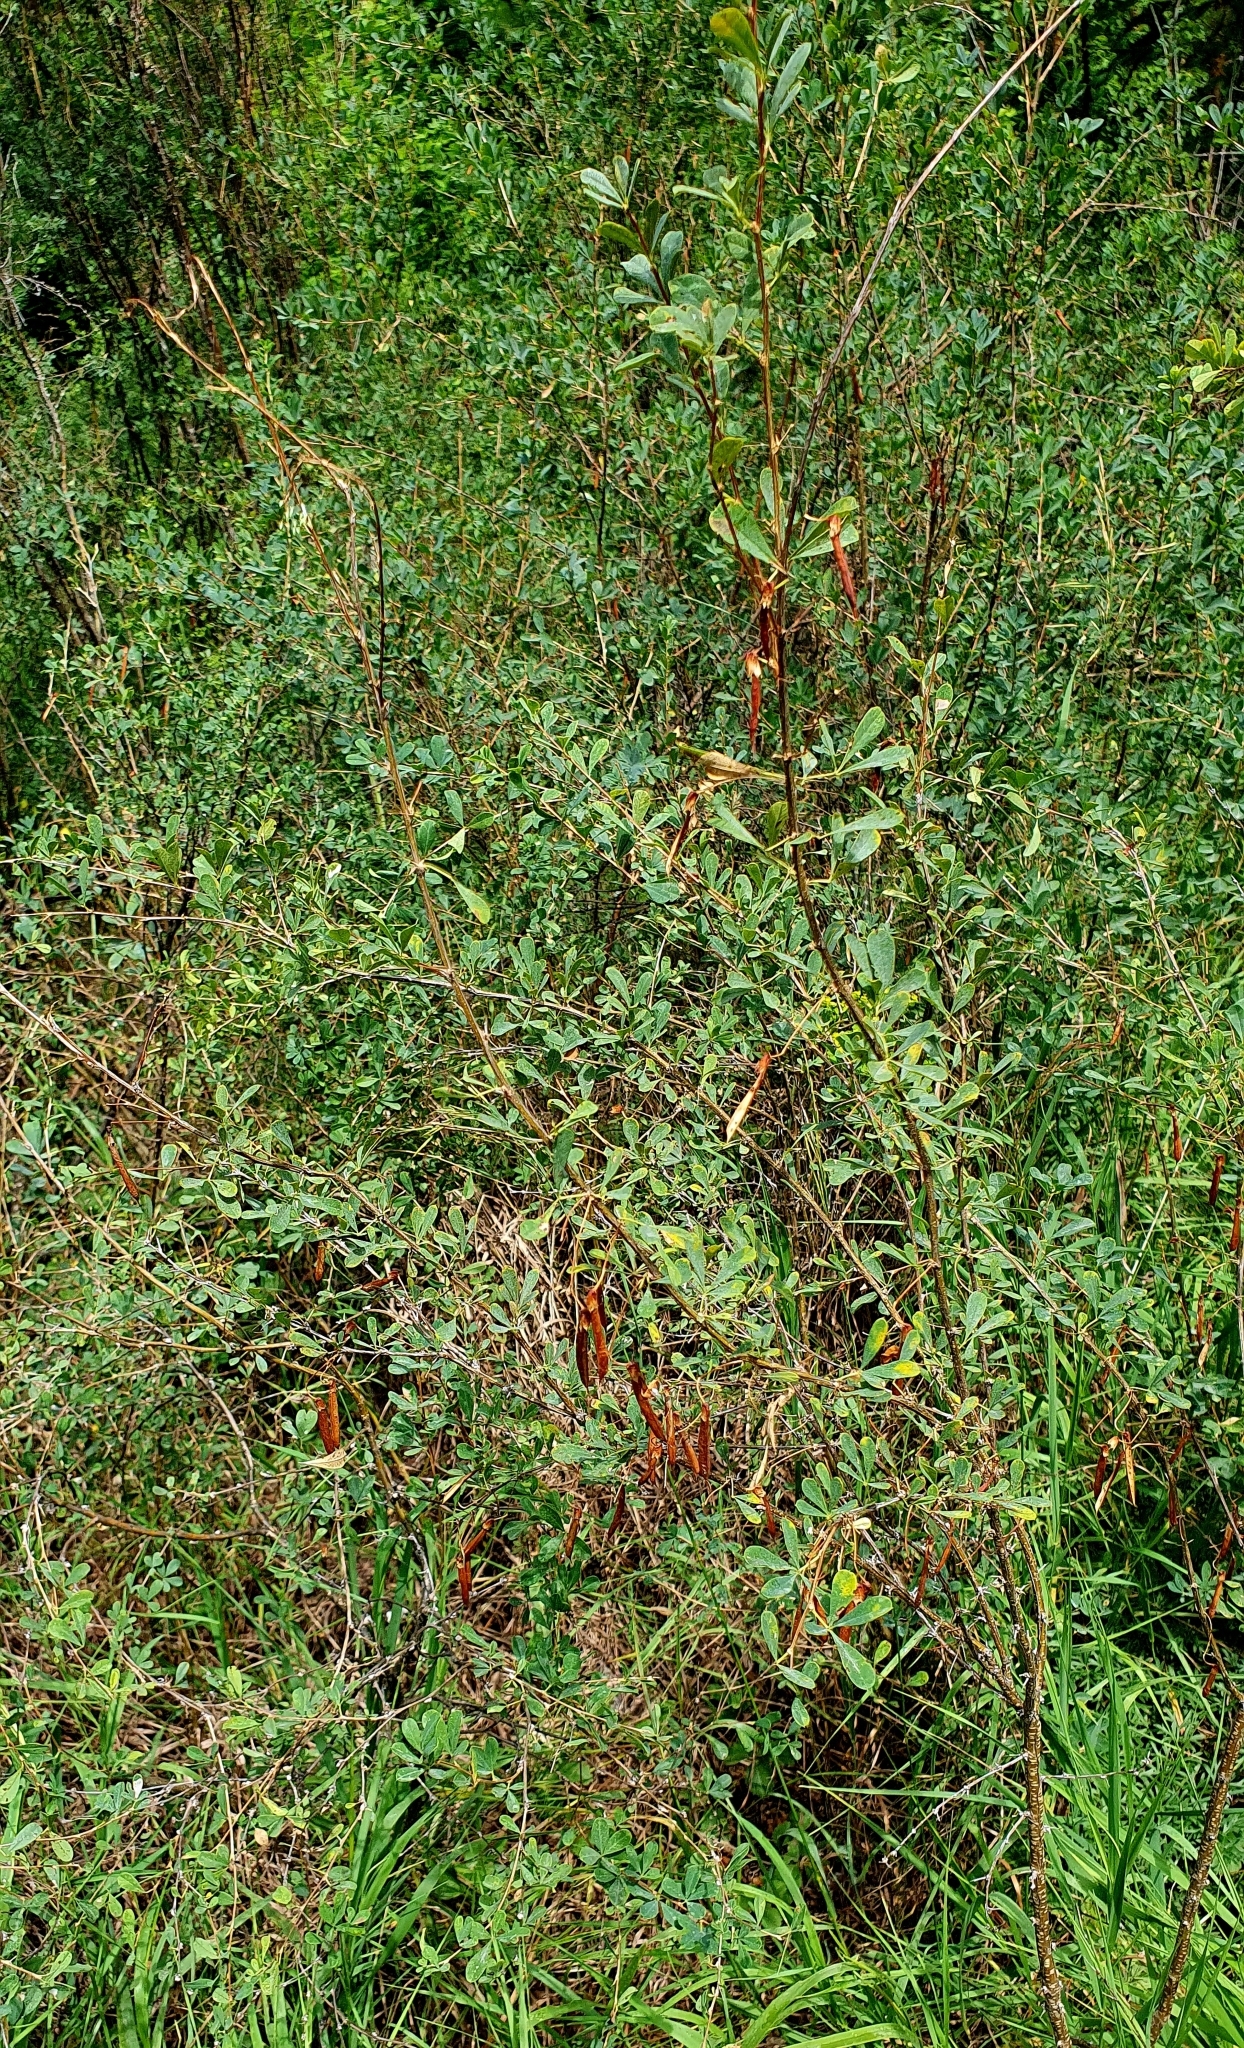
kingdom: Plantae
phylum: Tracheophyta
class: Magnoliopsida
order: Fabales
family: Fabaceae
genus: Caragana
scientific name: Caragana frutex
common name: Russian peashrub
